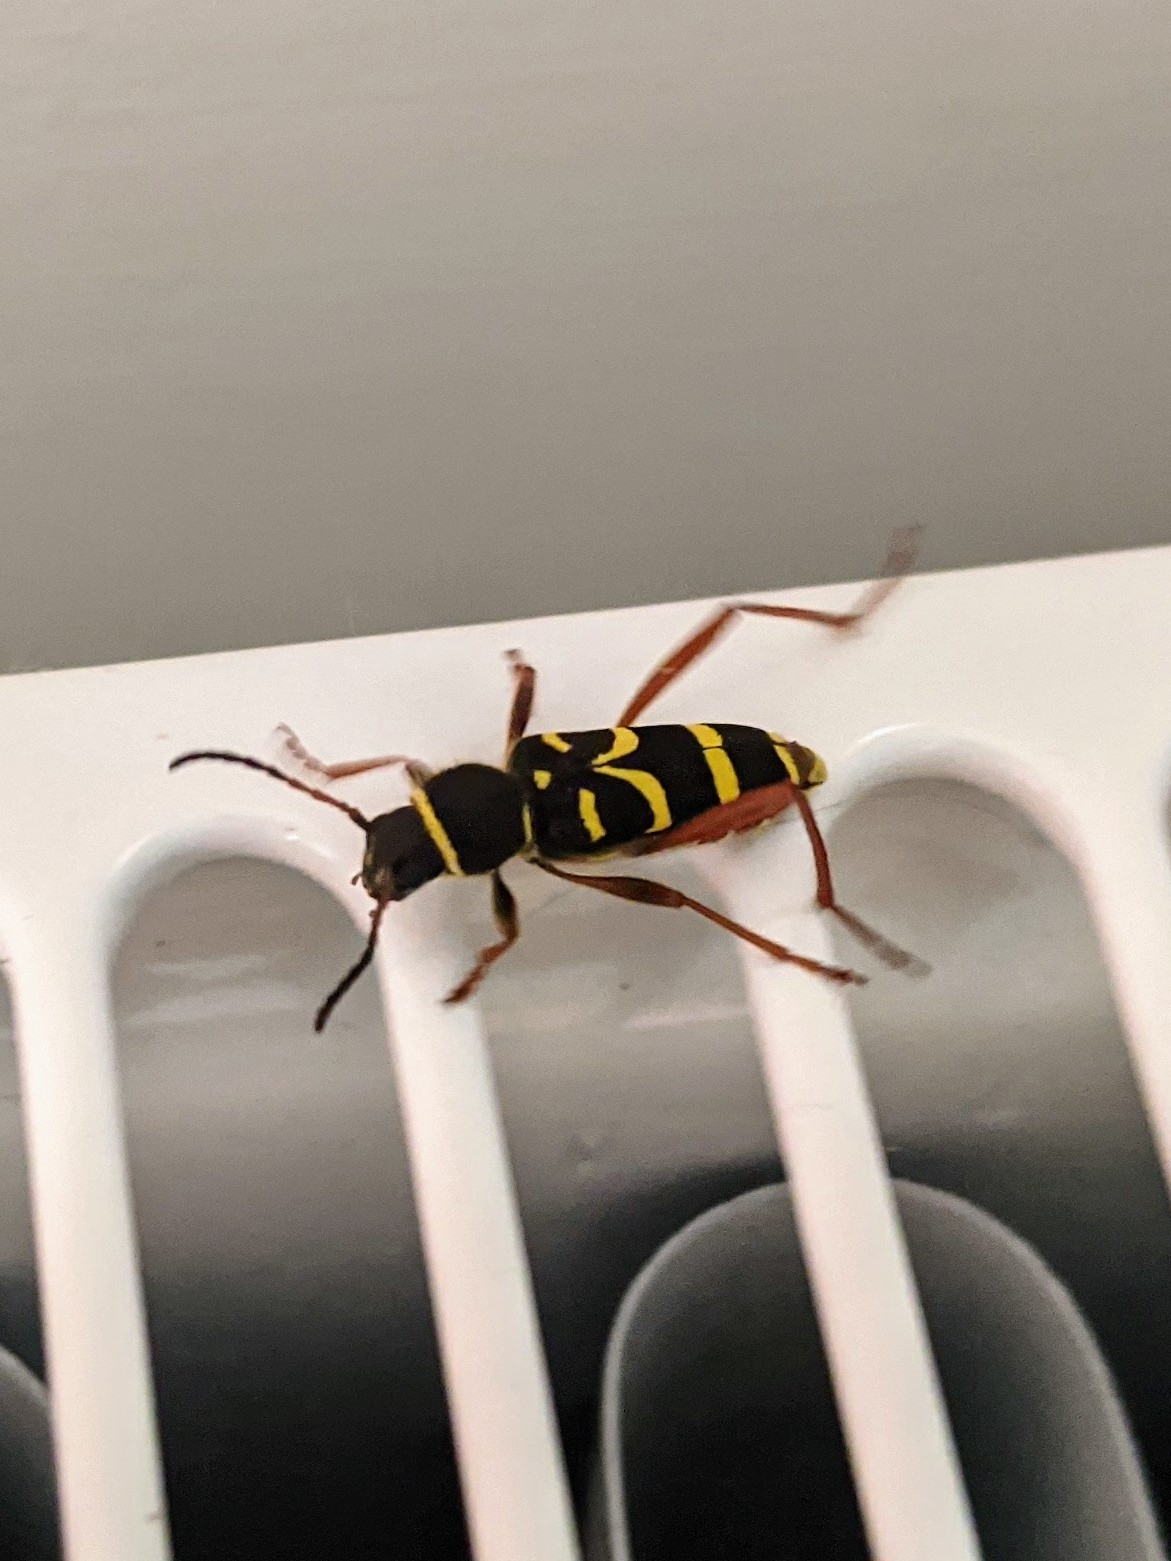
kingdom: Animalia
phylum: Arthropoda
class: Insecta
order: Coleoptera
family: Cerambycidae
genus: Clytus
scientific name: Clytus arietis
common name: Wasp beetle
